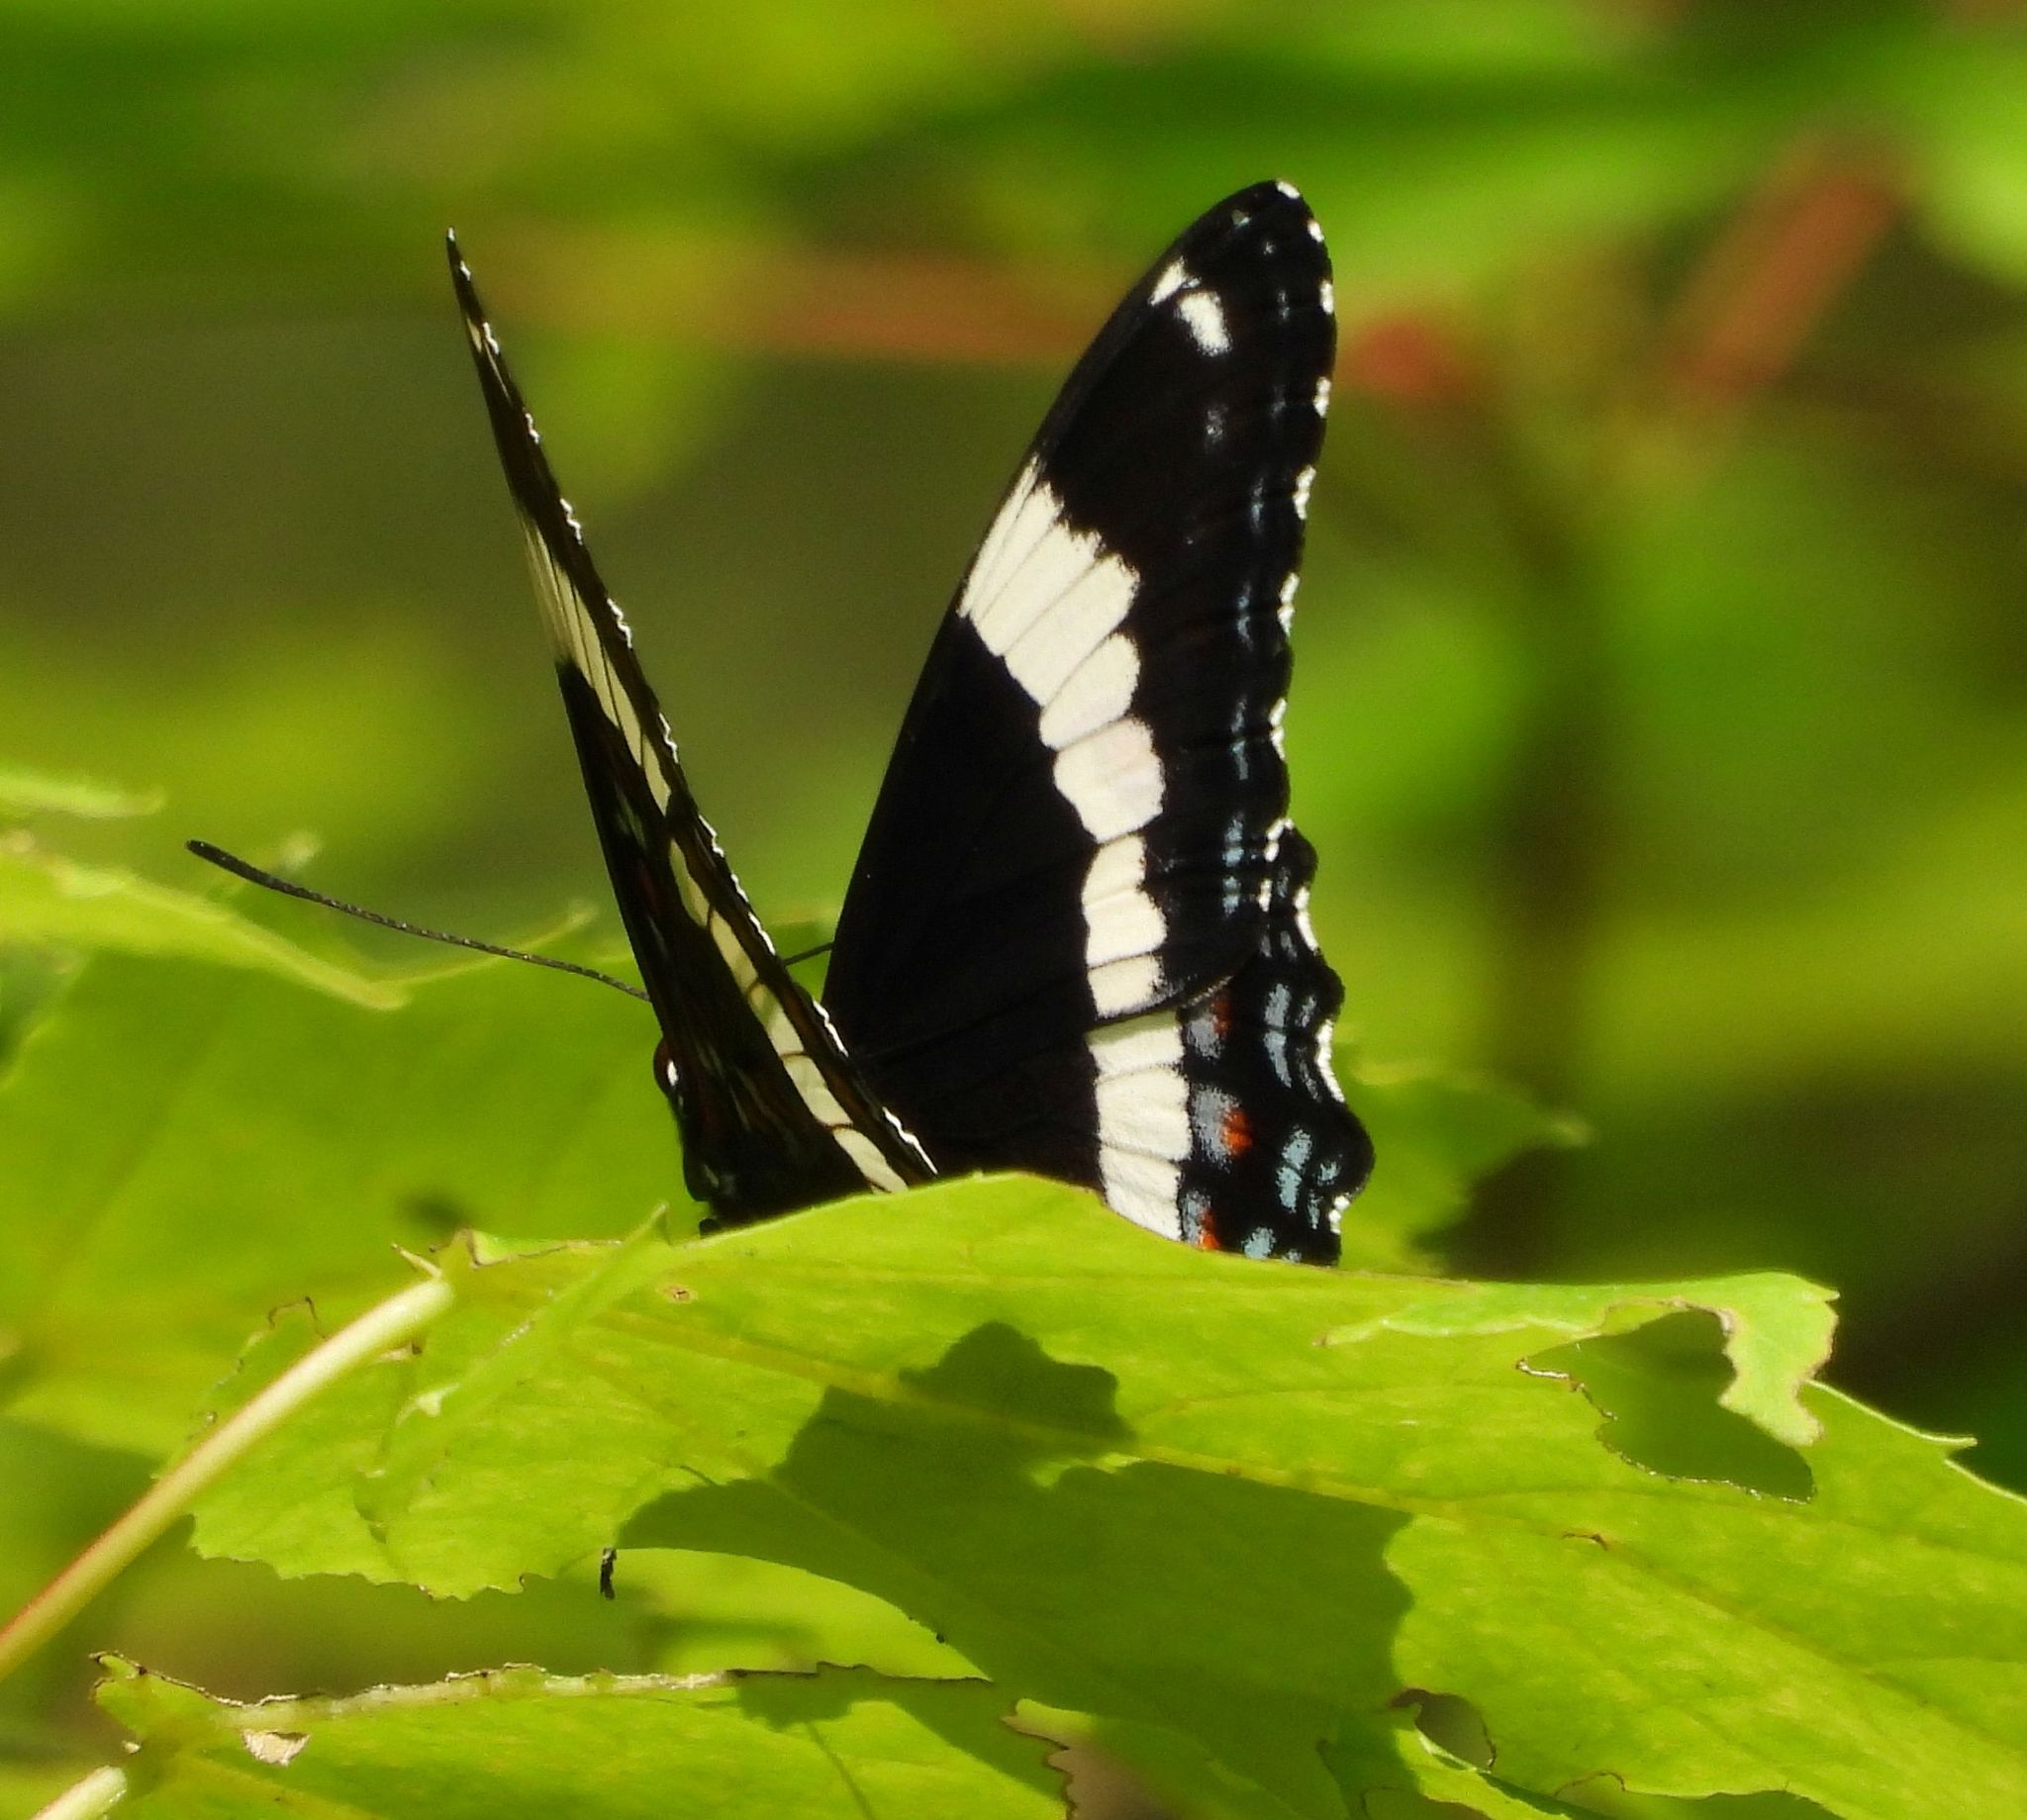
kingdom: Animalia
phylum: Arthropoda
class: Insecta
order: Lepidoptera
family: Nymphalidae
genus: Limenitis
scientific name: Limenitis arthemis
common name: Red-spotted admiral
